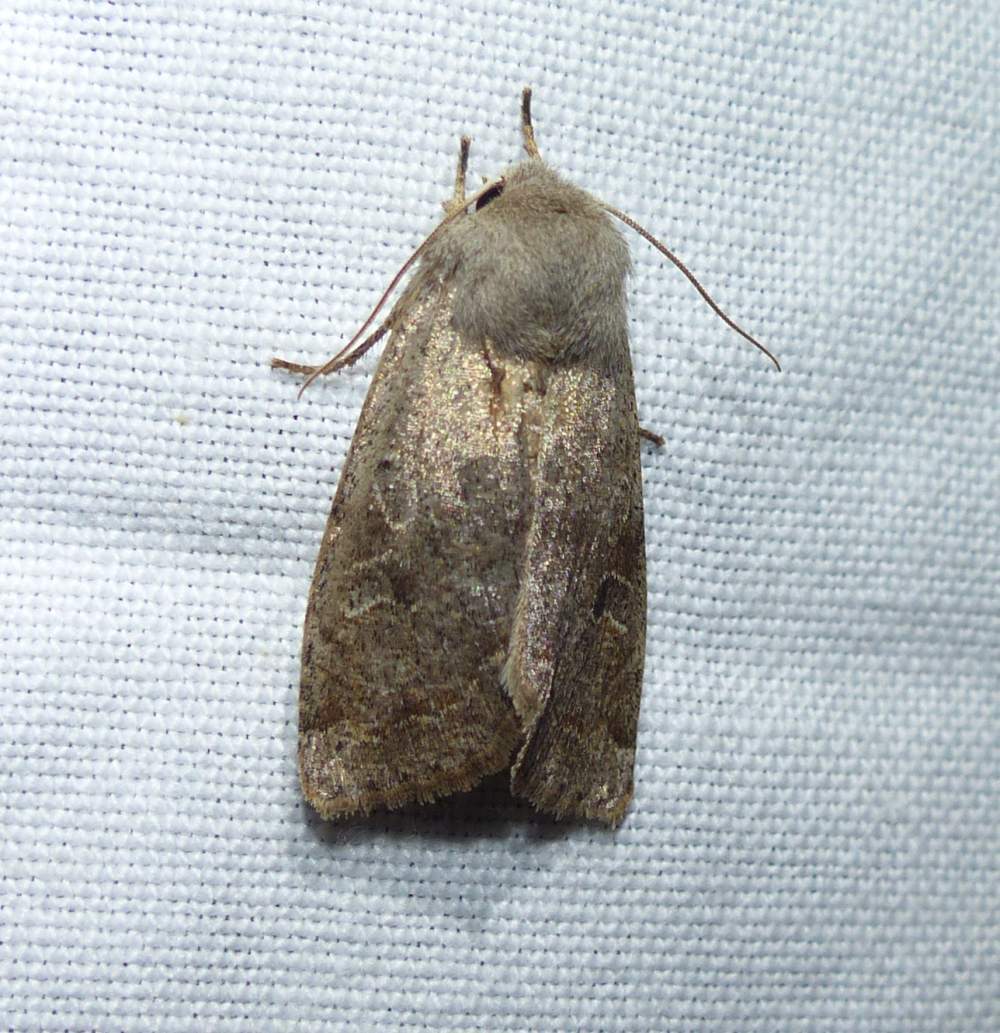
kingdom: Animalia
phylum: Arthropoda
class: Insecta
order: Lepidoptera
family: Noctuidae
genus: Orthosia
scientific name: Orthosia hibisci
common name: Green fruitworm
